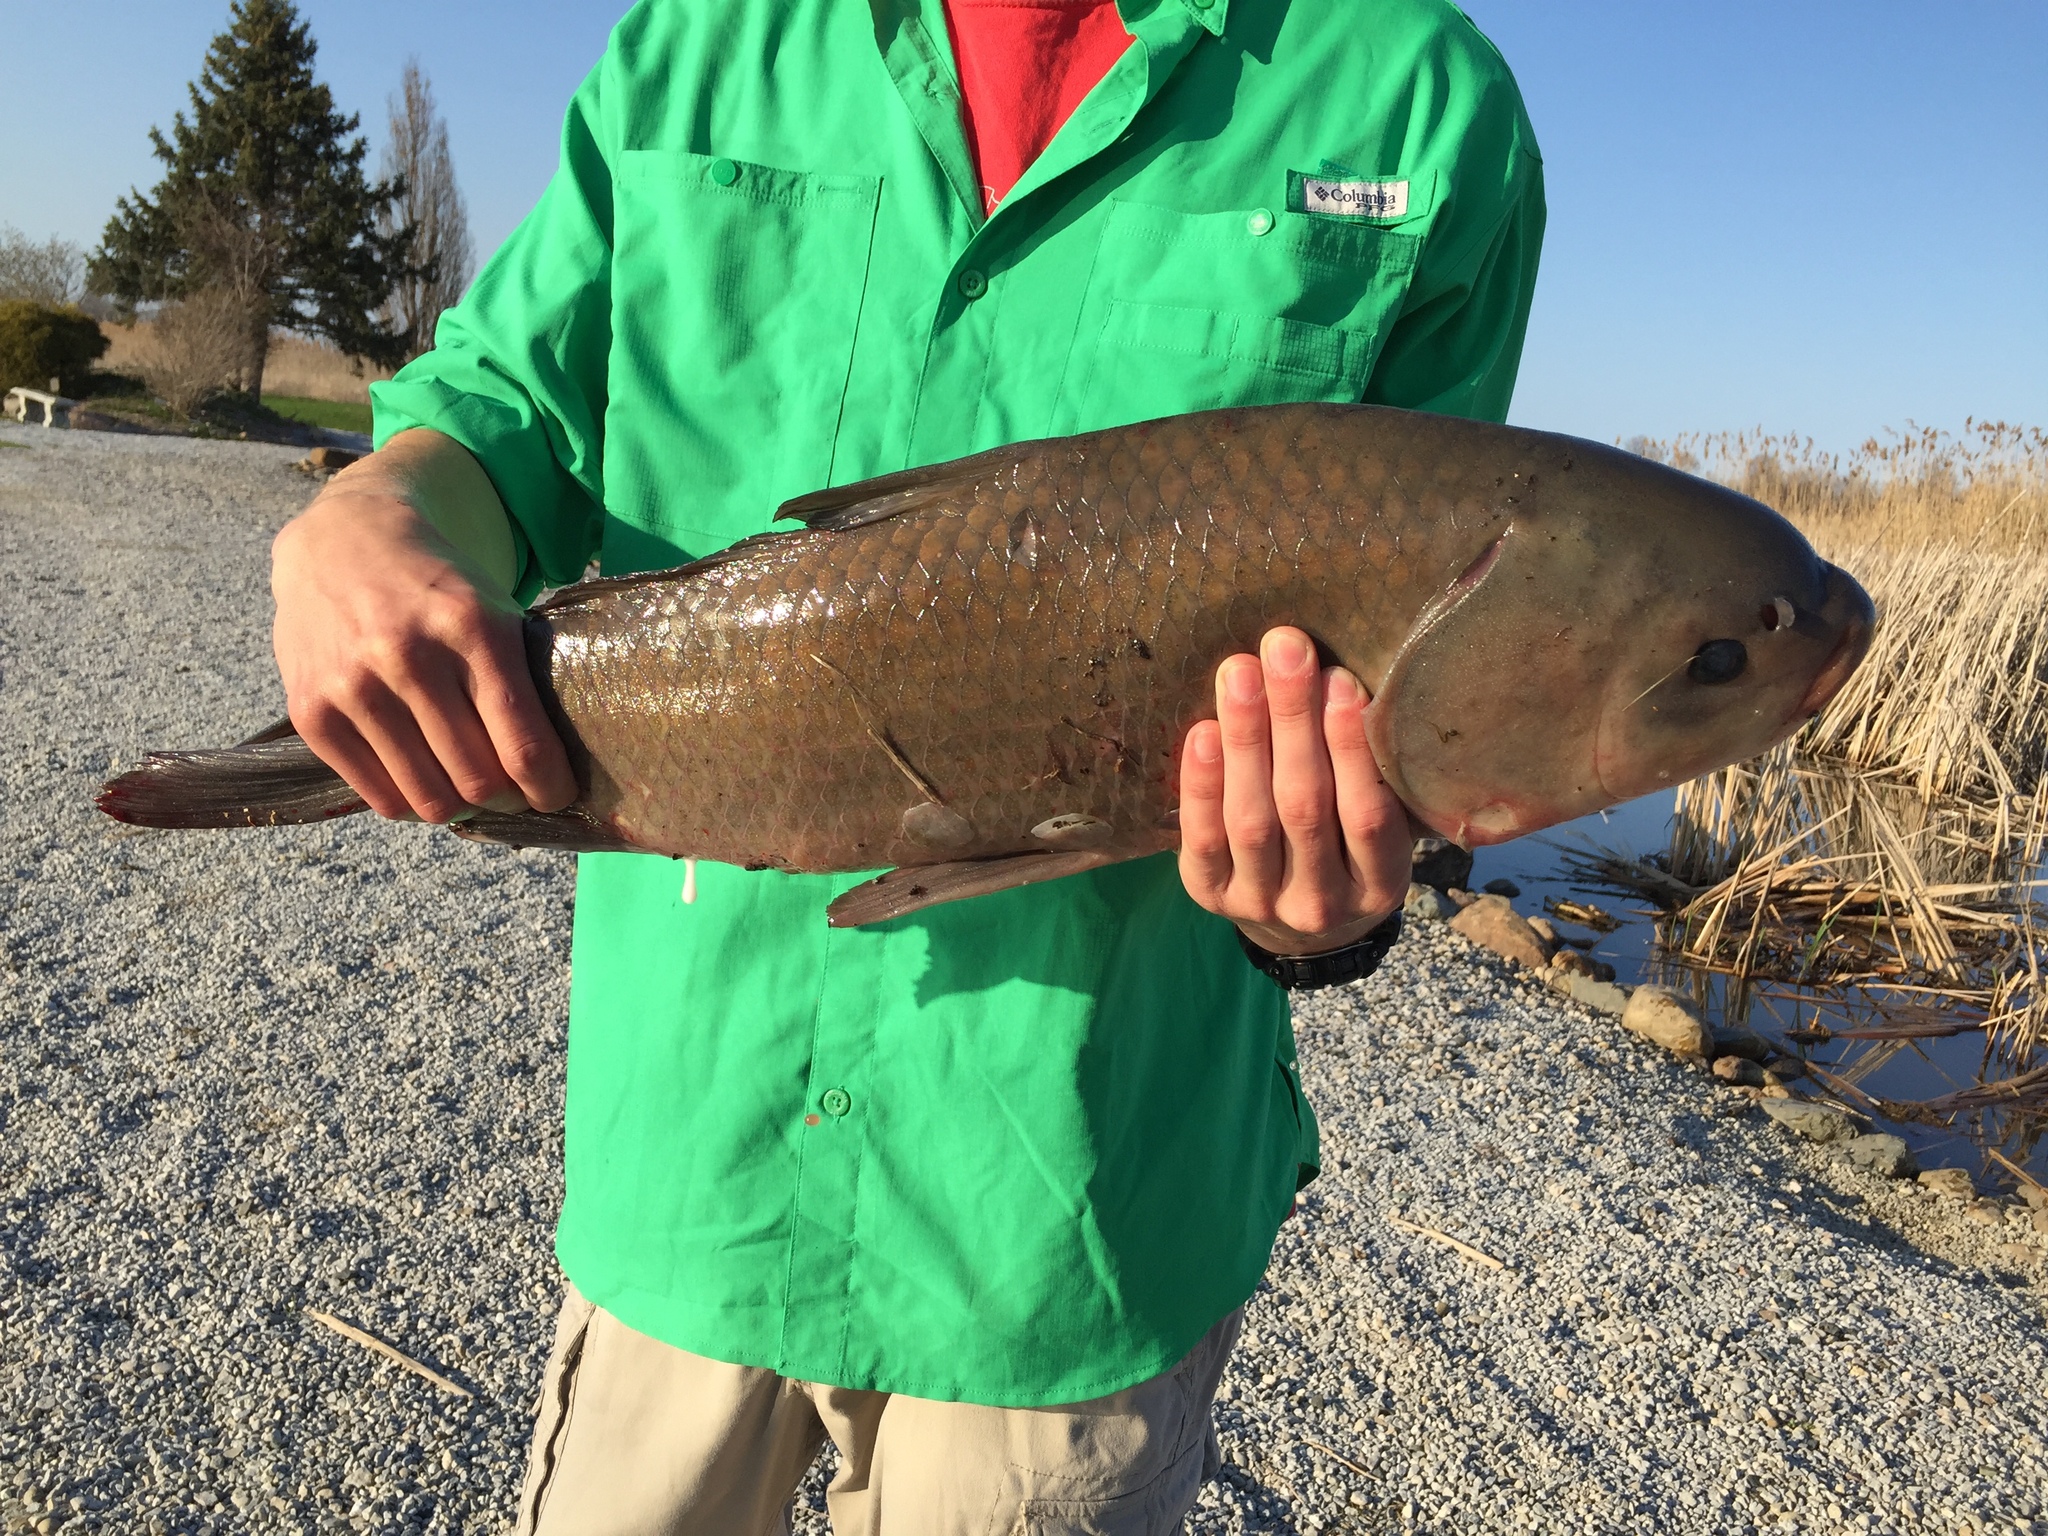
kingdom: Animalia
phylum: Chordata
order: Cypriniformes
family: Catostomidae
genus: Ictiobus
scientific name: Ictiobus cyprinellus
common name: Bigmouth buffalo
